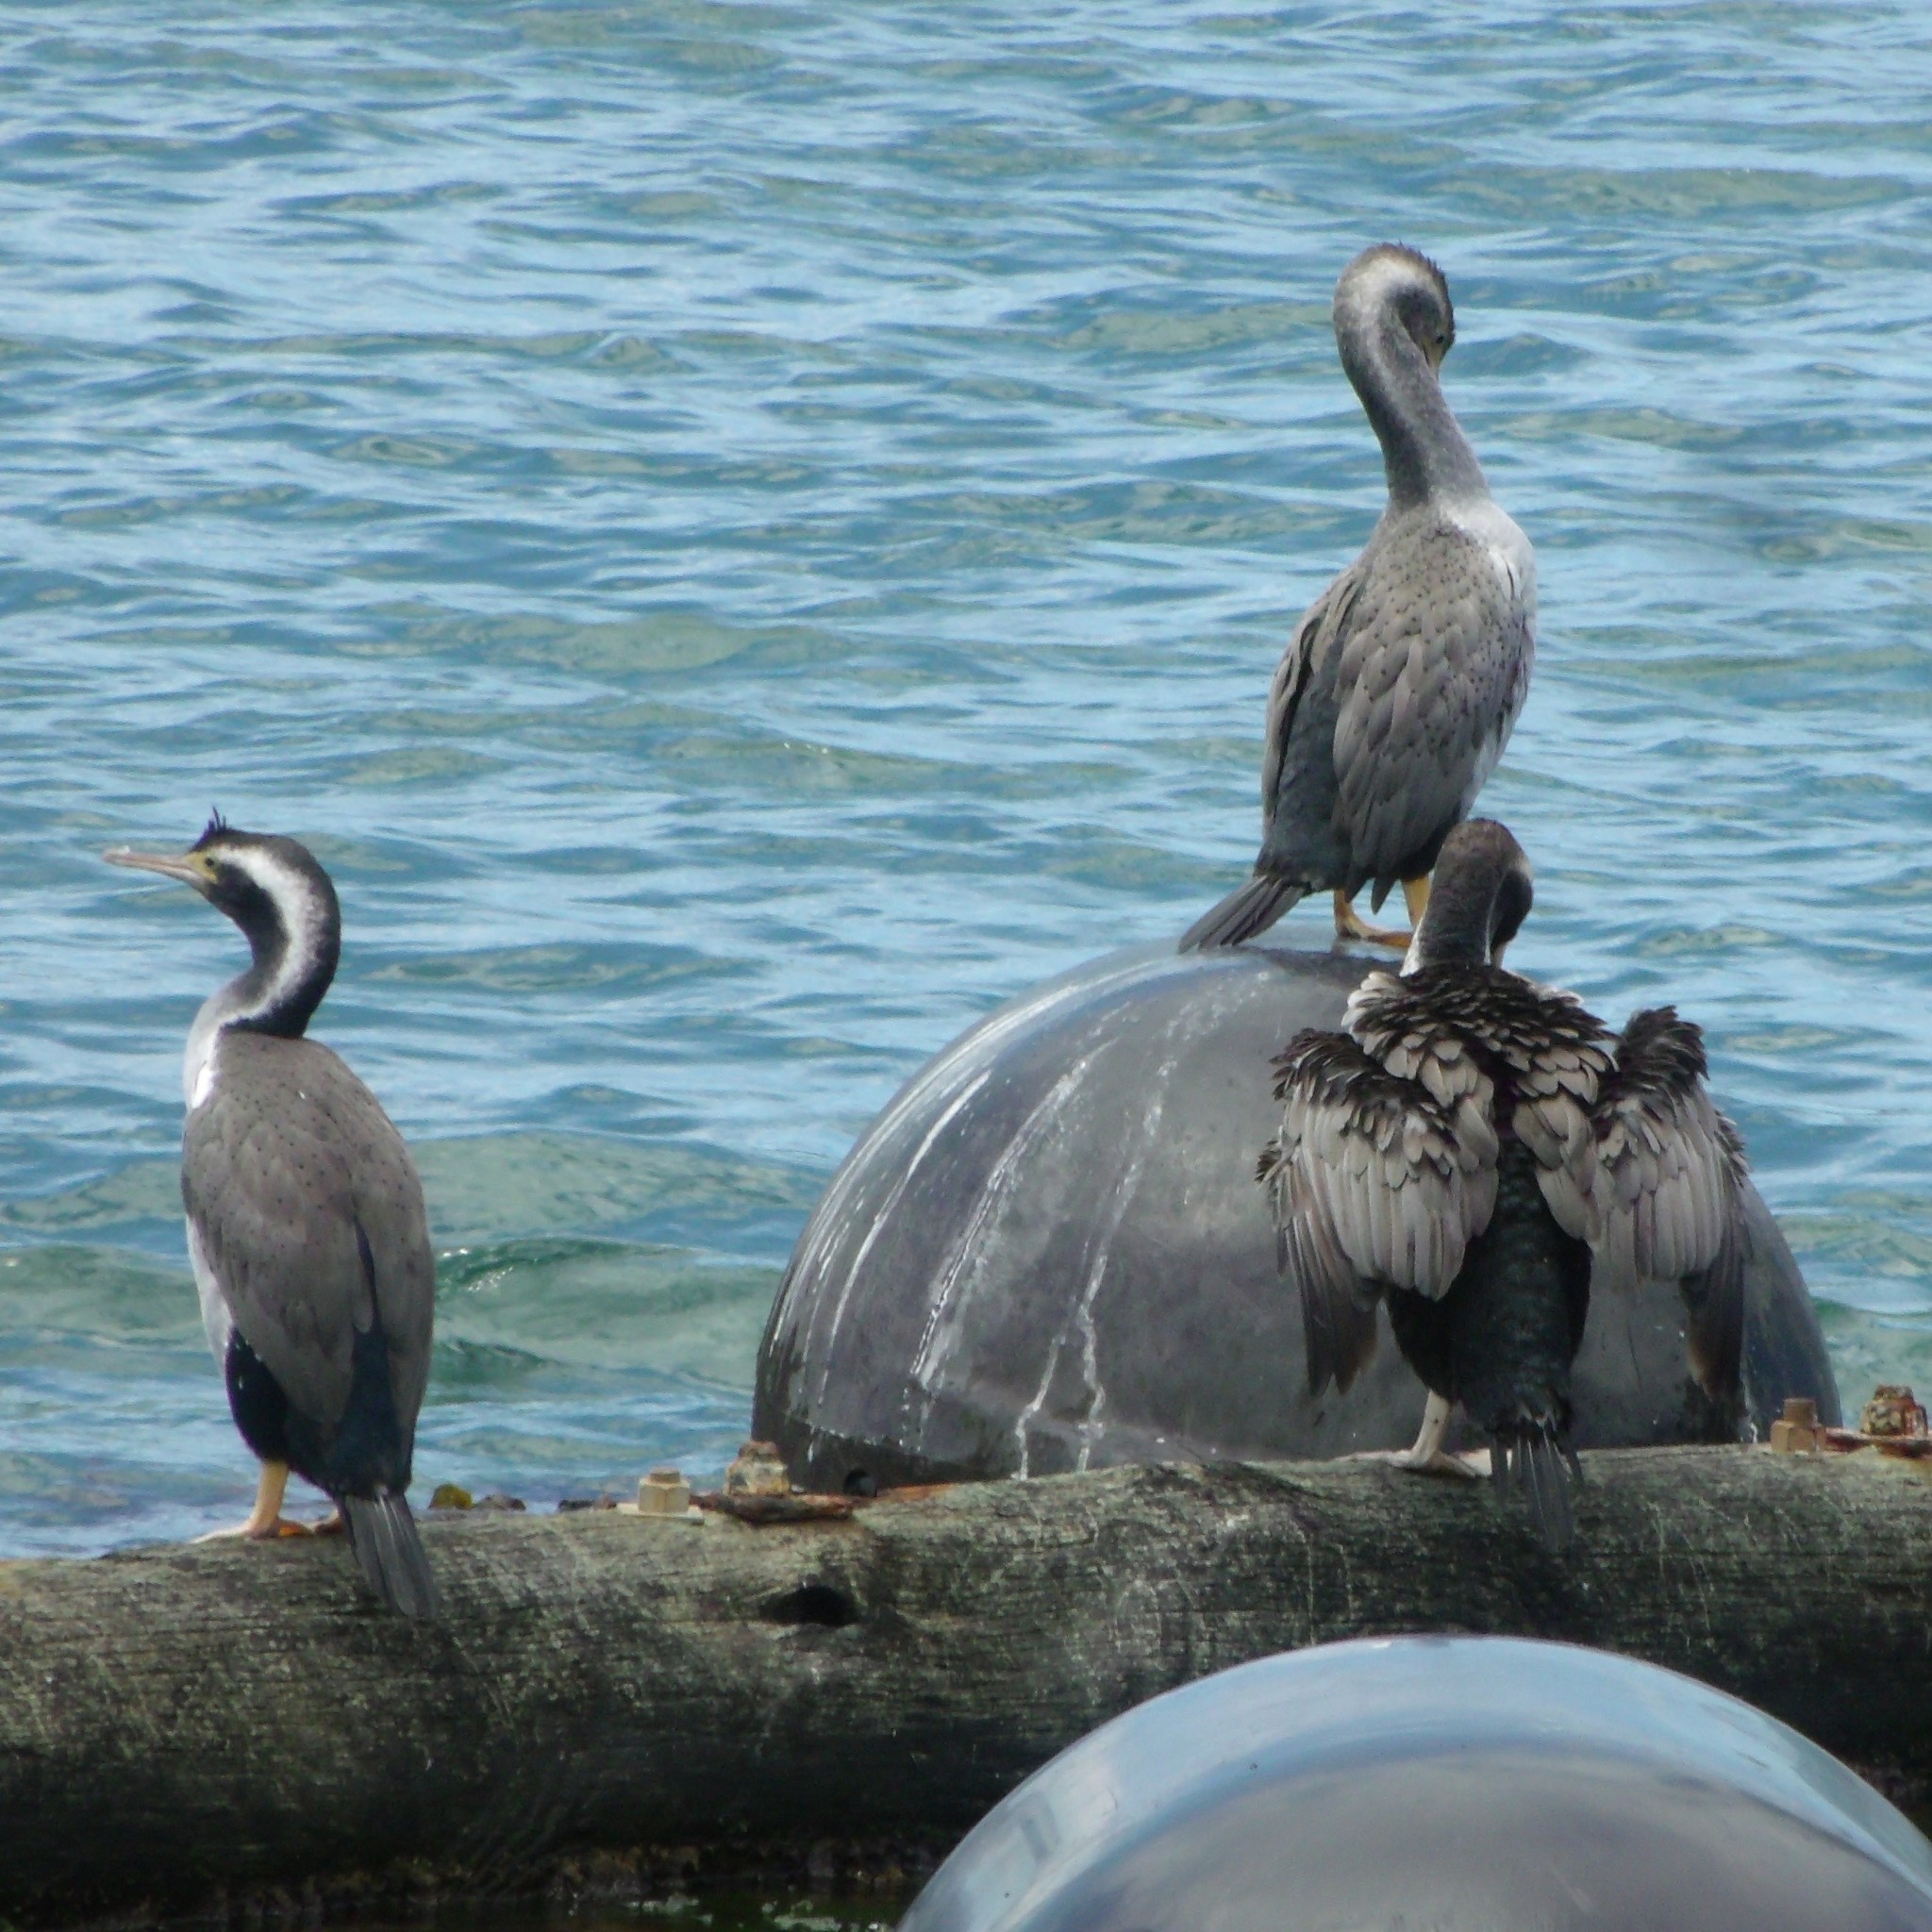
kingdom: Animalia
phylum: Chordata
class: Aves
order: Suliformes
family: Phalacrocoracidae
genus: Phalacrocorax
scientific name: Phalacrocorax punctatus
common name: Spotted shag
